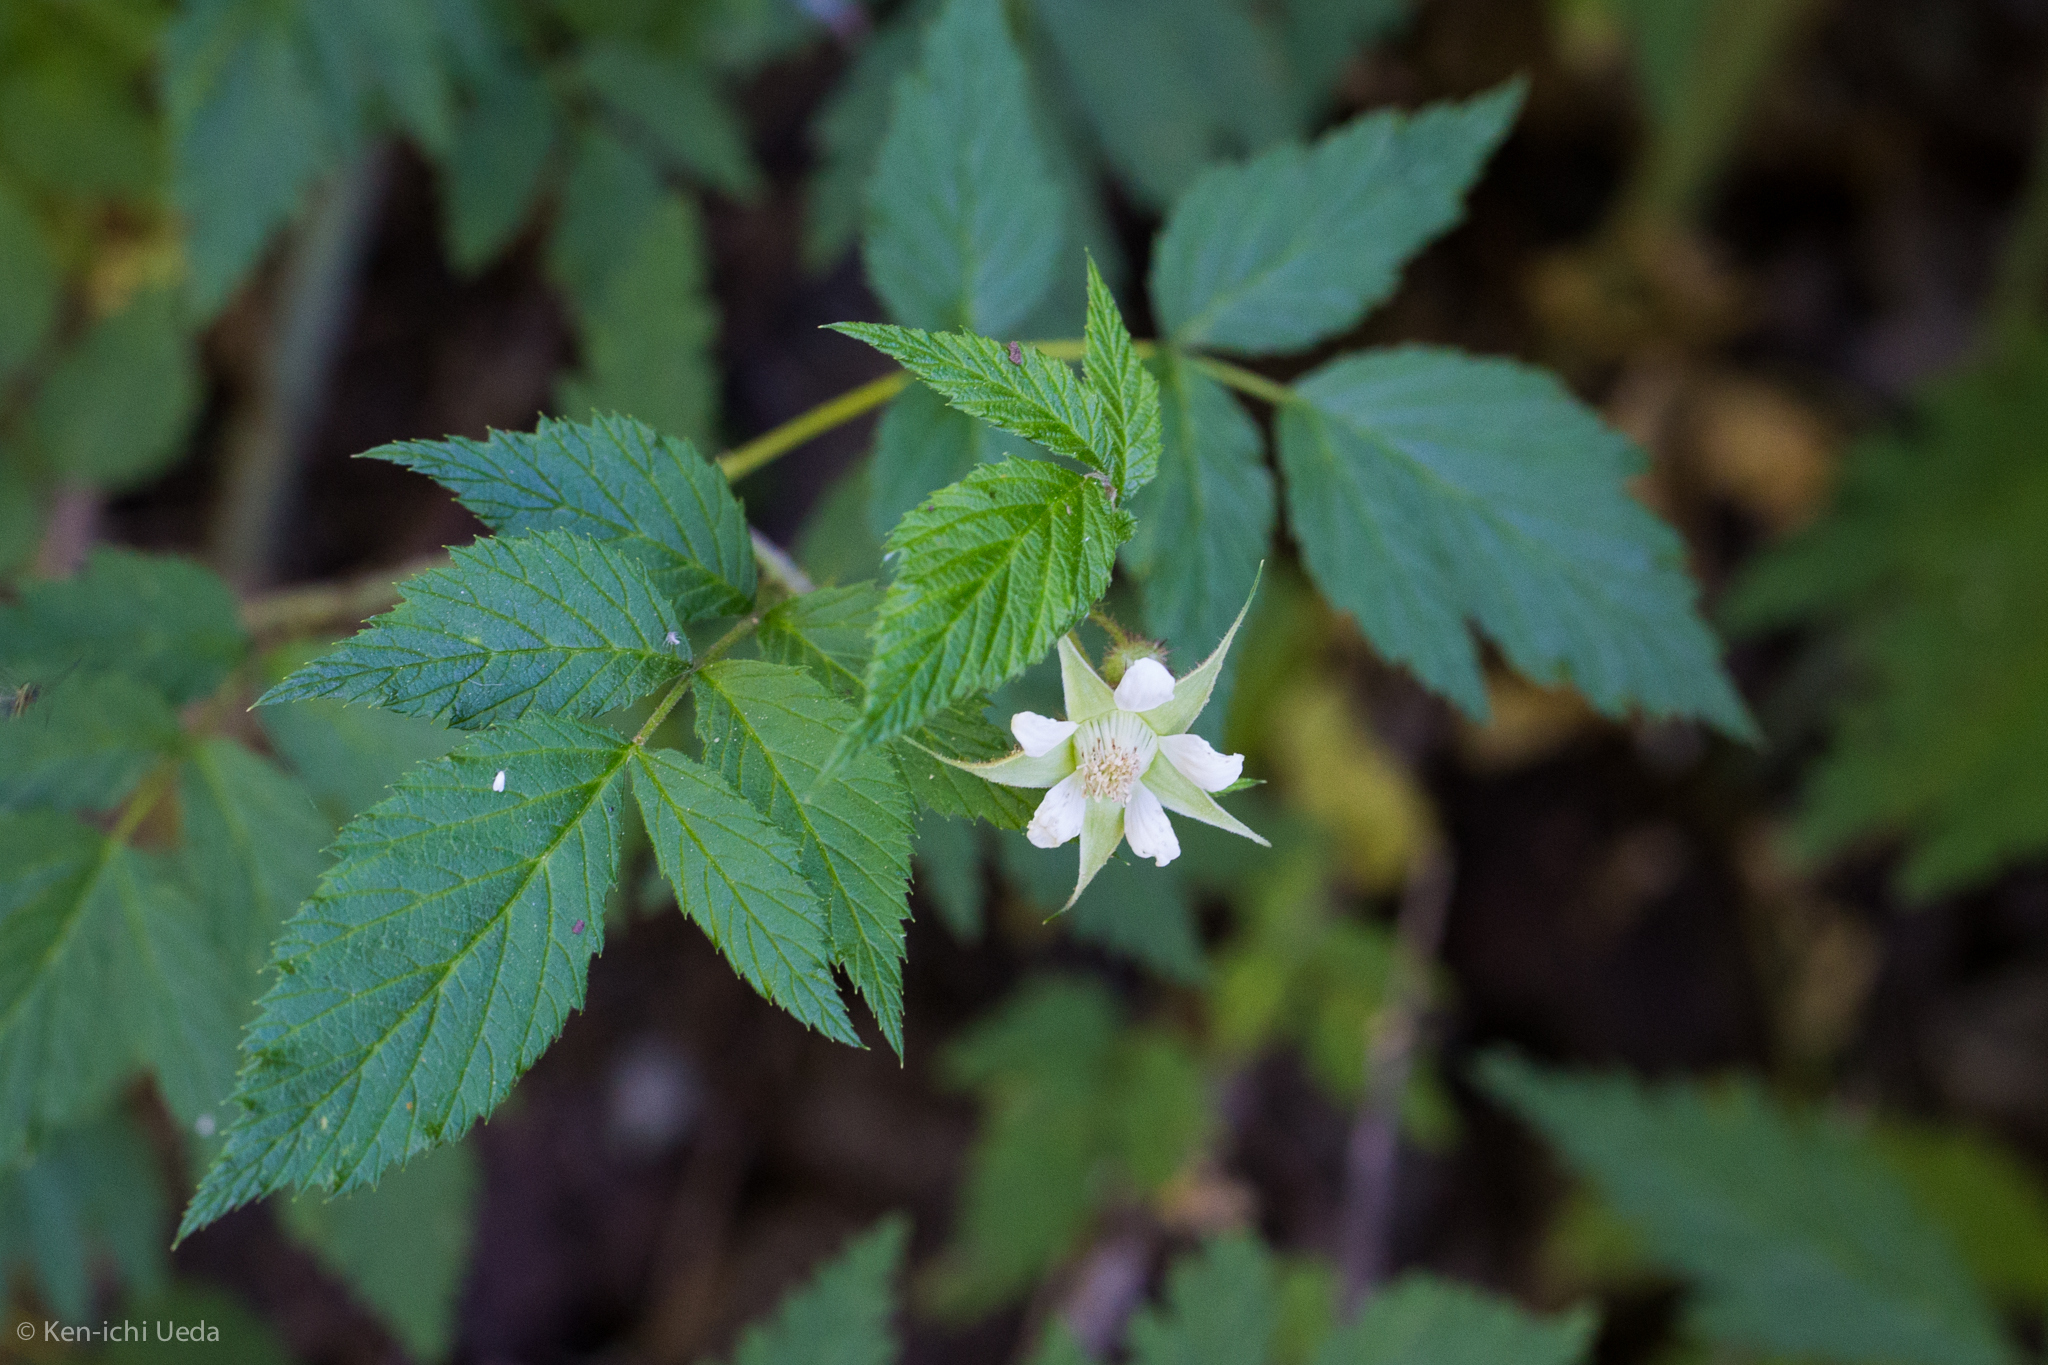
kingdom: Plantae
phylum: Tracheophyta
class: Magnoliopsida
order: Rosales
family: Rosaceae
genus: Rubus
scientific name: Rubus idaeus
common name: Raspberry
